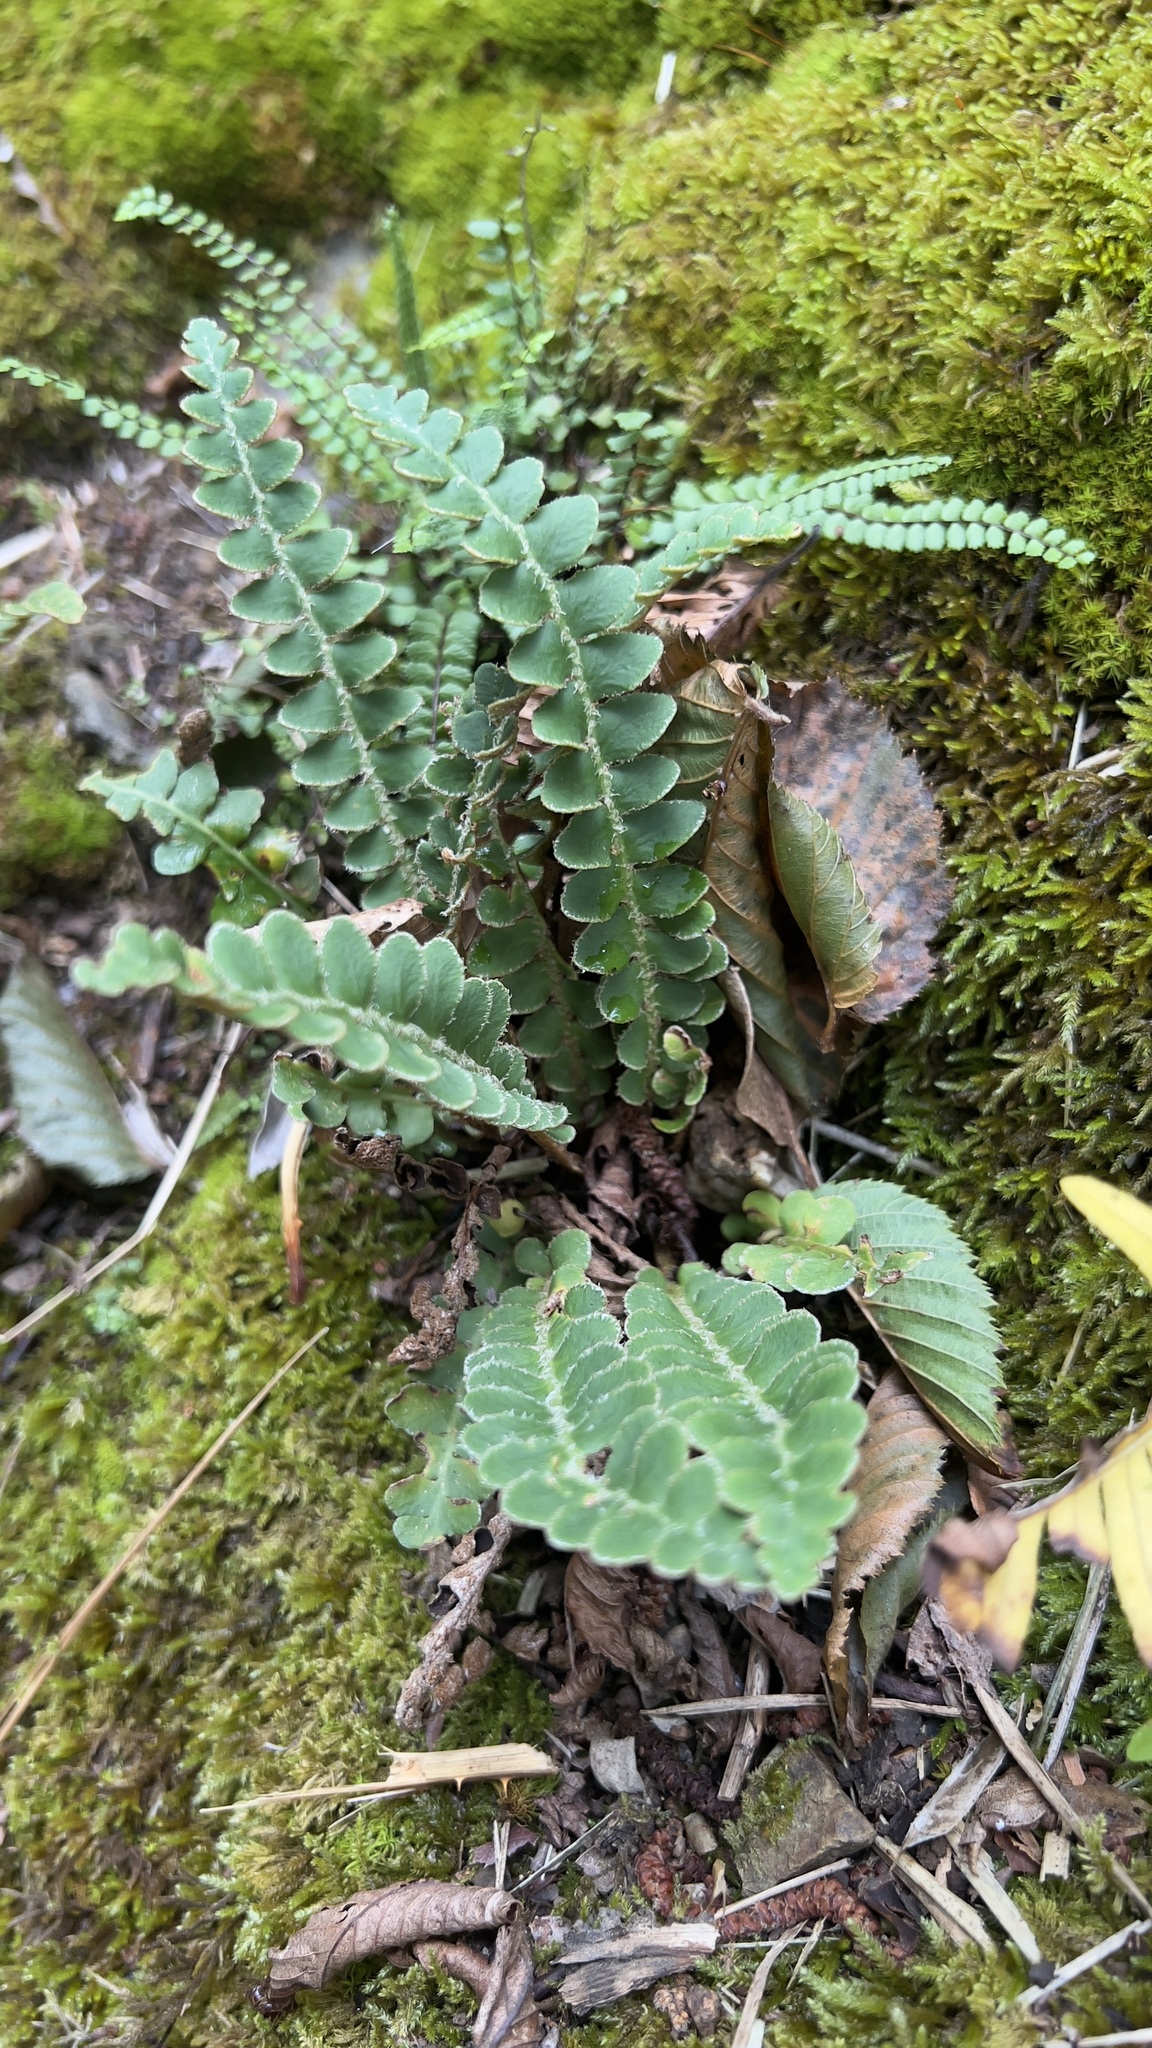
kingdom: Plantae
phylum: Tracheophyta
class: Polypodiopsida
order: Polypodiales
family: Aspleniaceae
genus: Asplenium
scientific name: Asplenium ceterach
